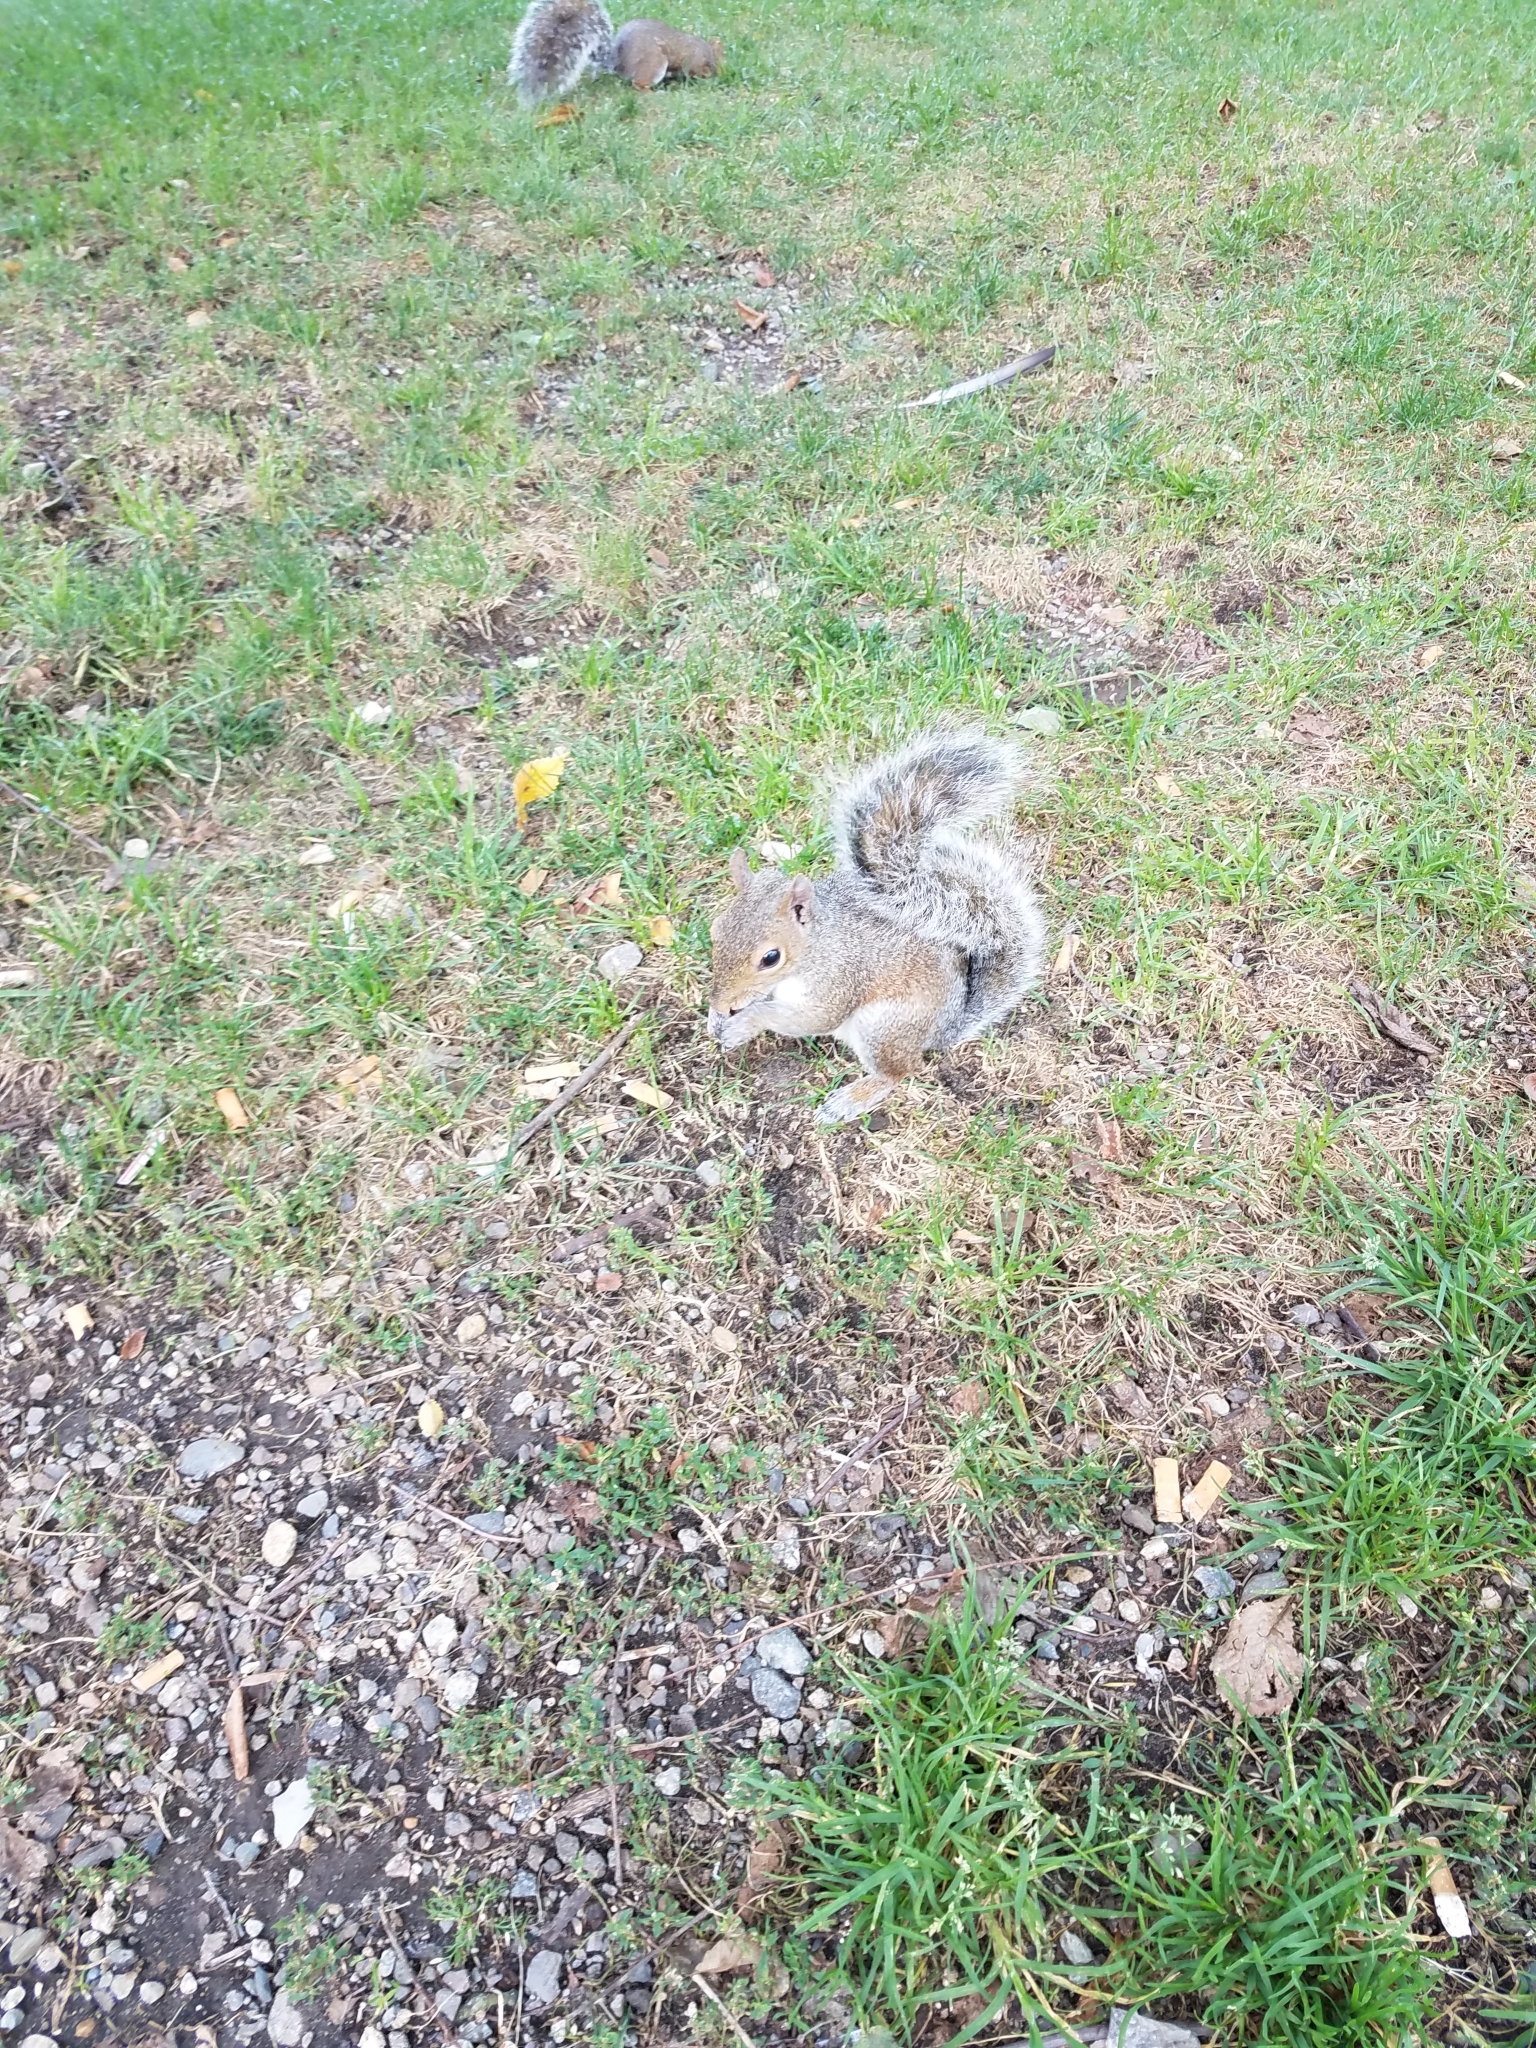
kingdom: Animalia
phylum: Chordata
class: Mammalia
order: Rodentia
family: Sciuridae
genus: Sciurus
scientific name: Sciurus carolinensis
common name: Eastern gray squirrel
